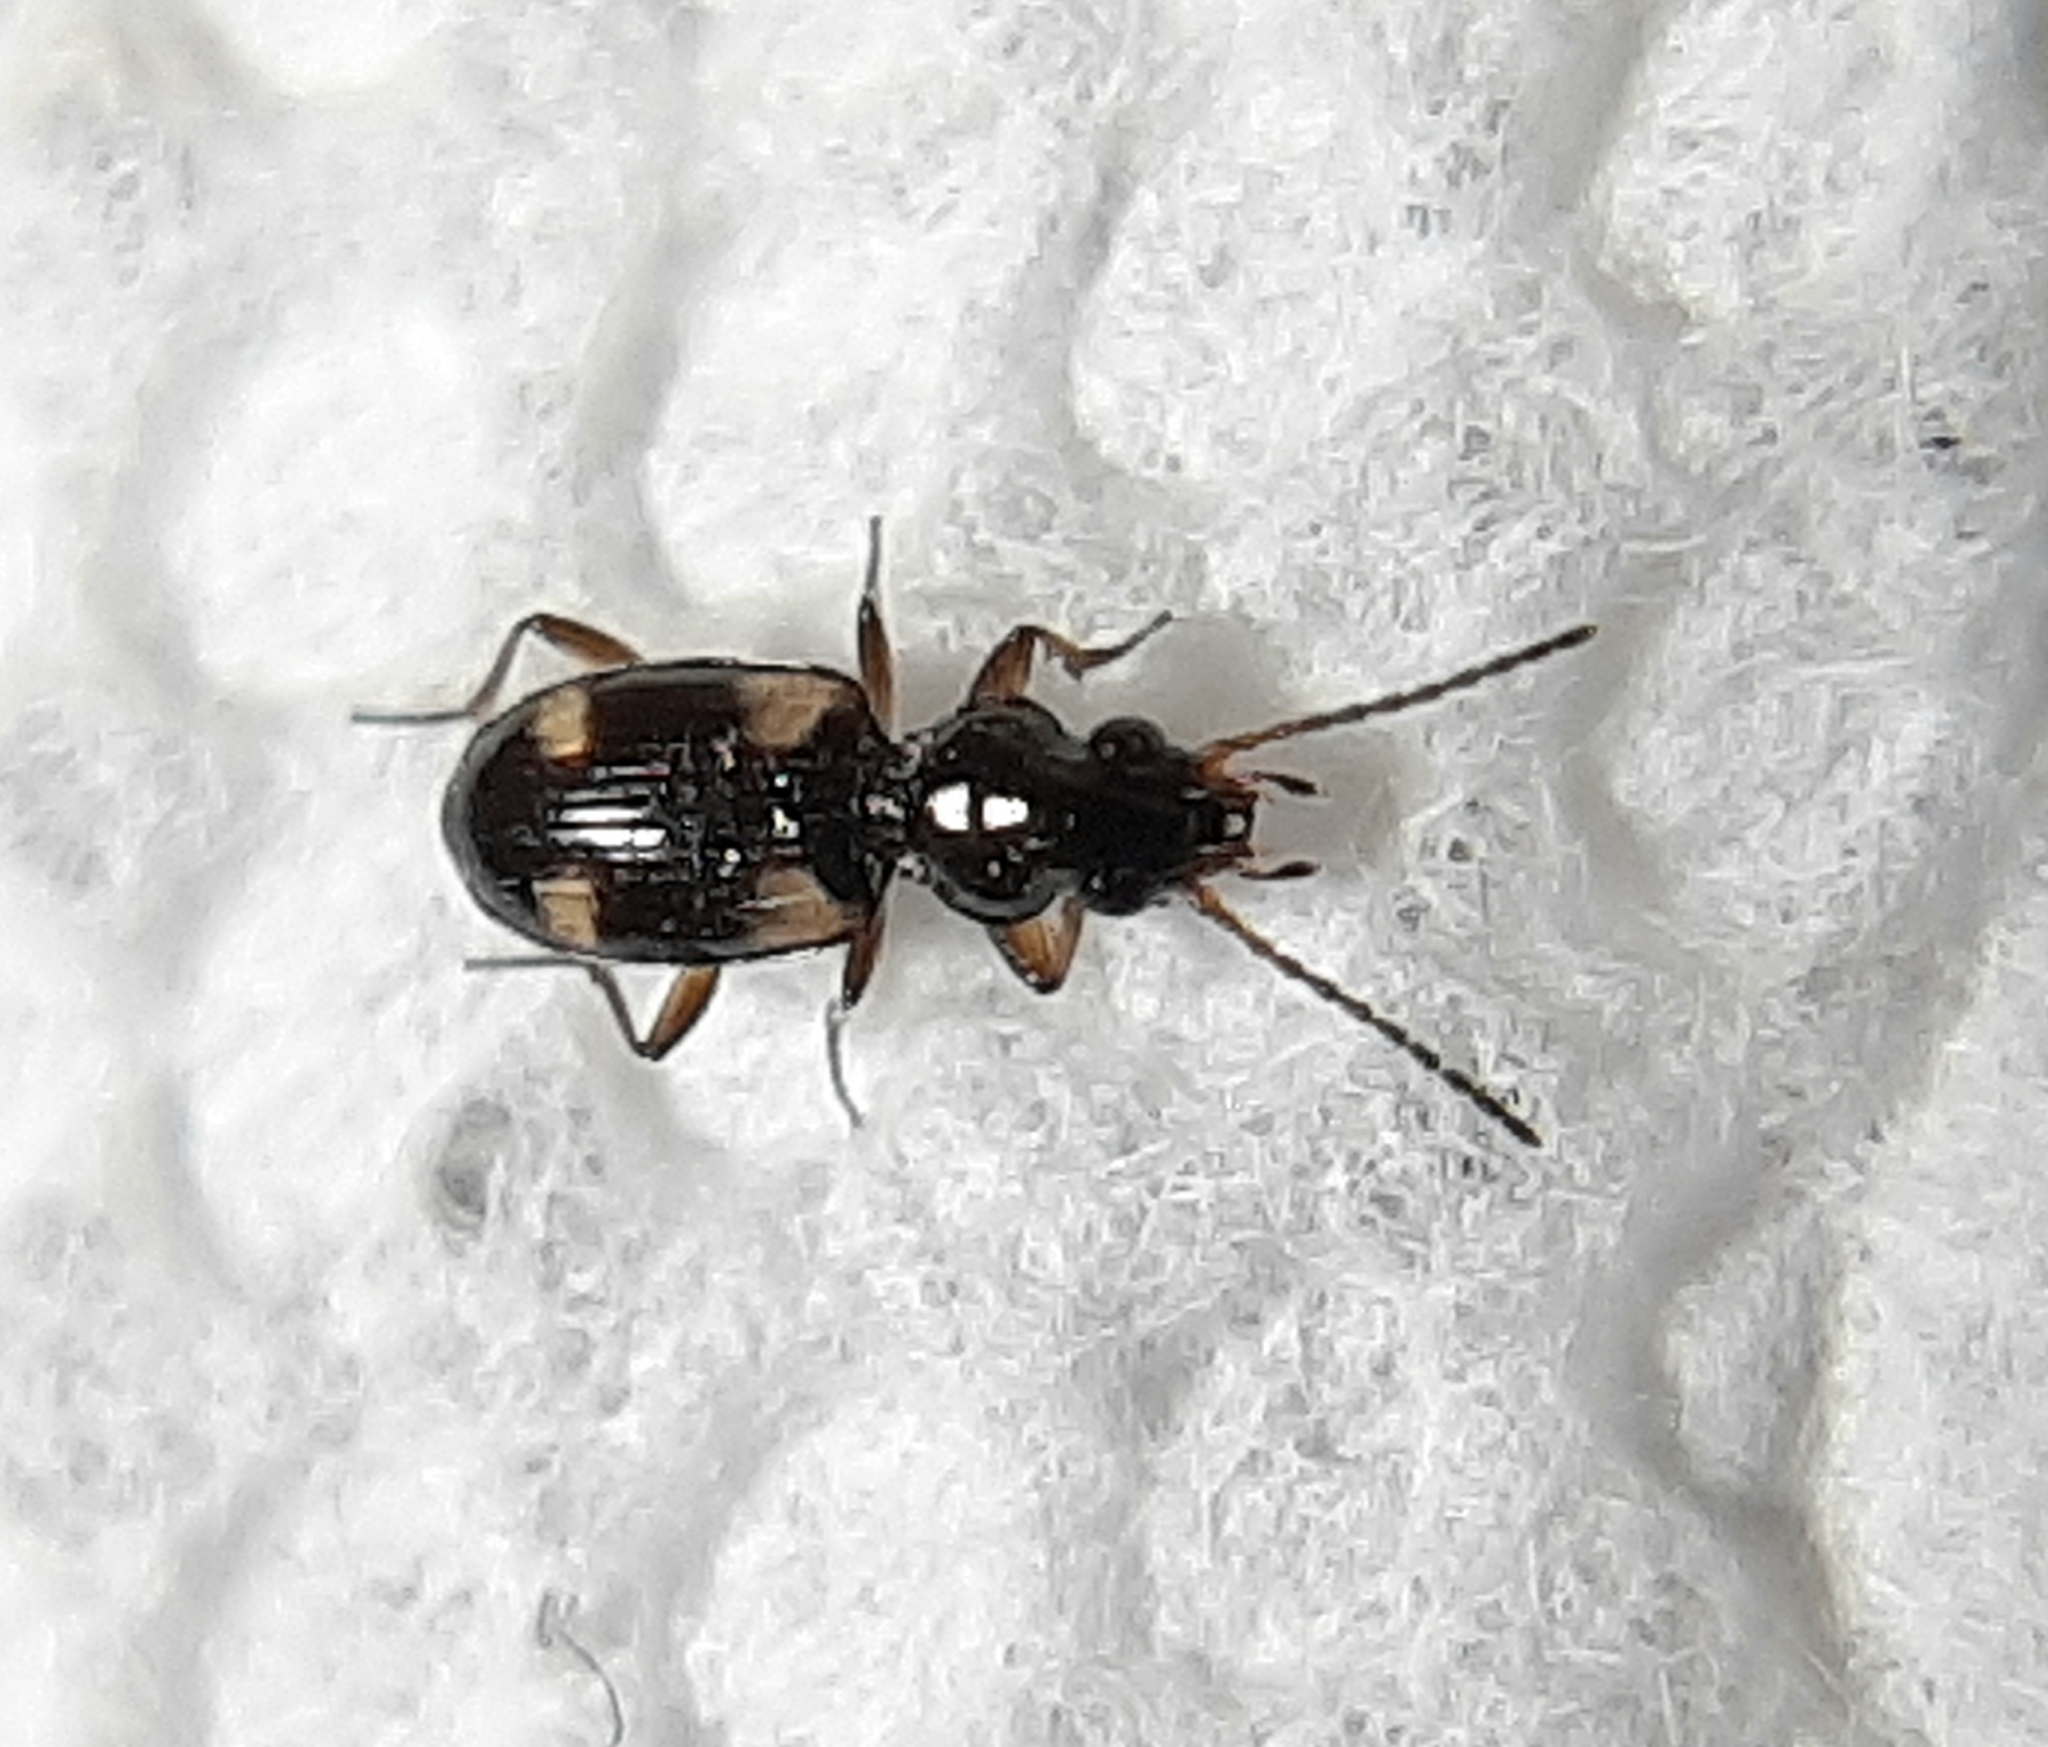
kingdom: Animalia
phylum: Arthropoda
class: Insecta
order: Coleoptera
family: Carabidae
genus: Bembidion
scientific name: Bembidion quadrimaculatum
